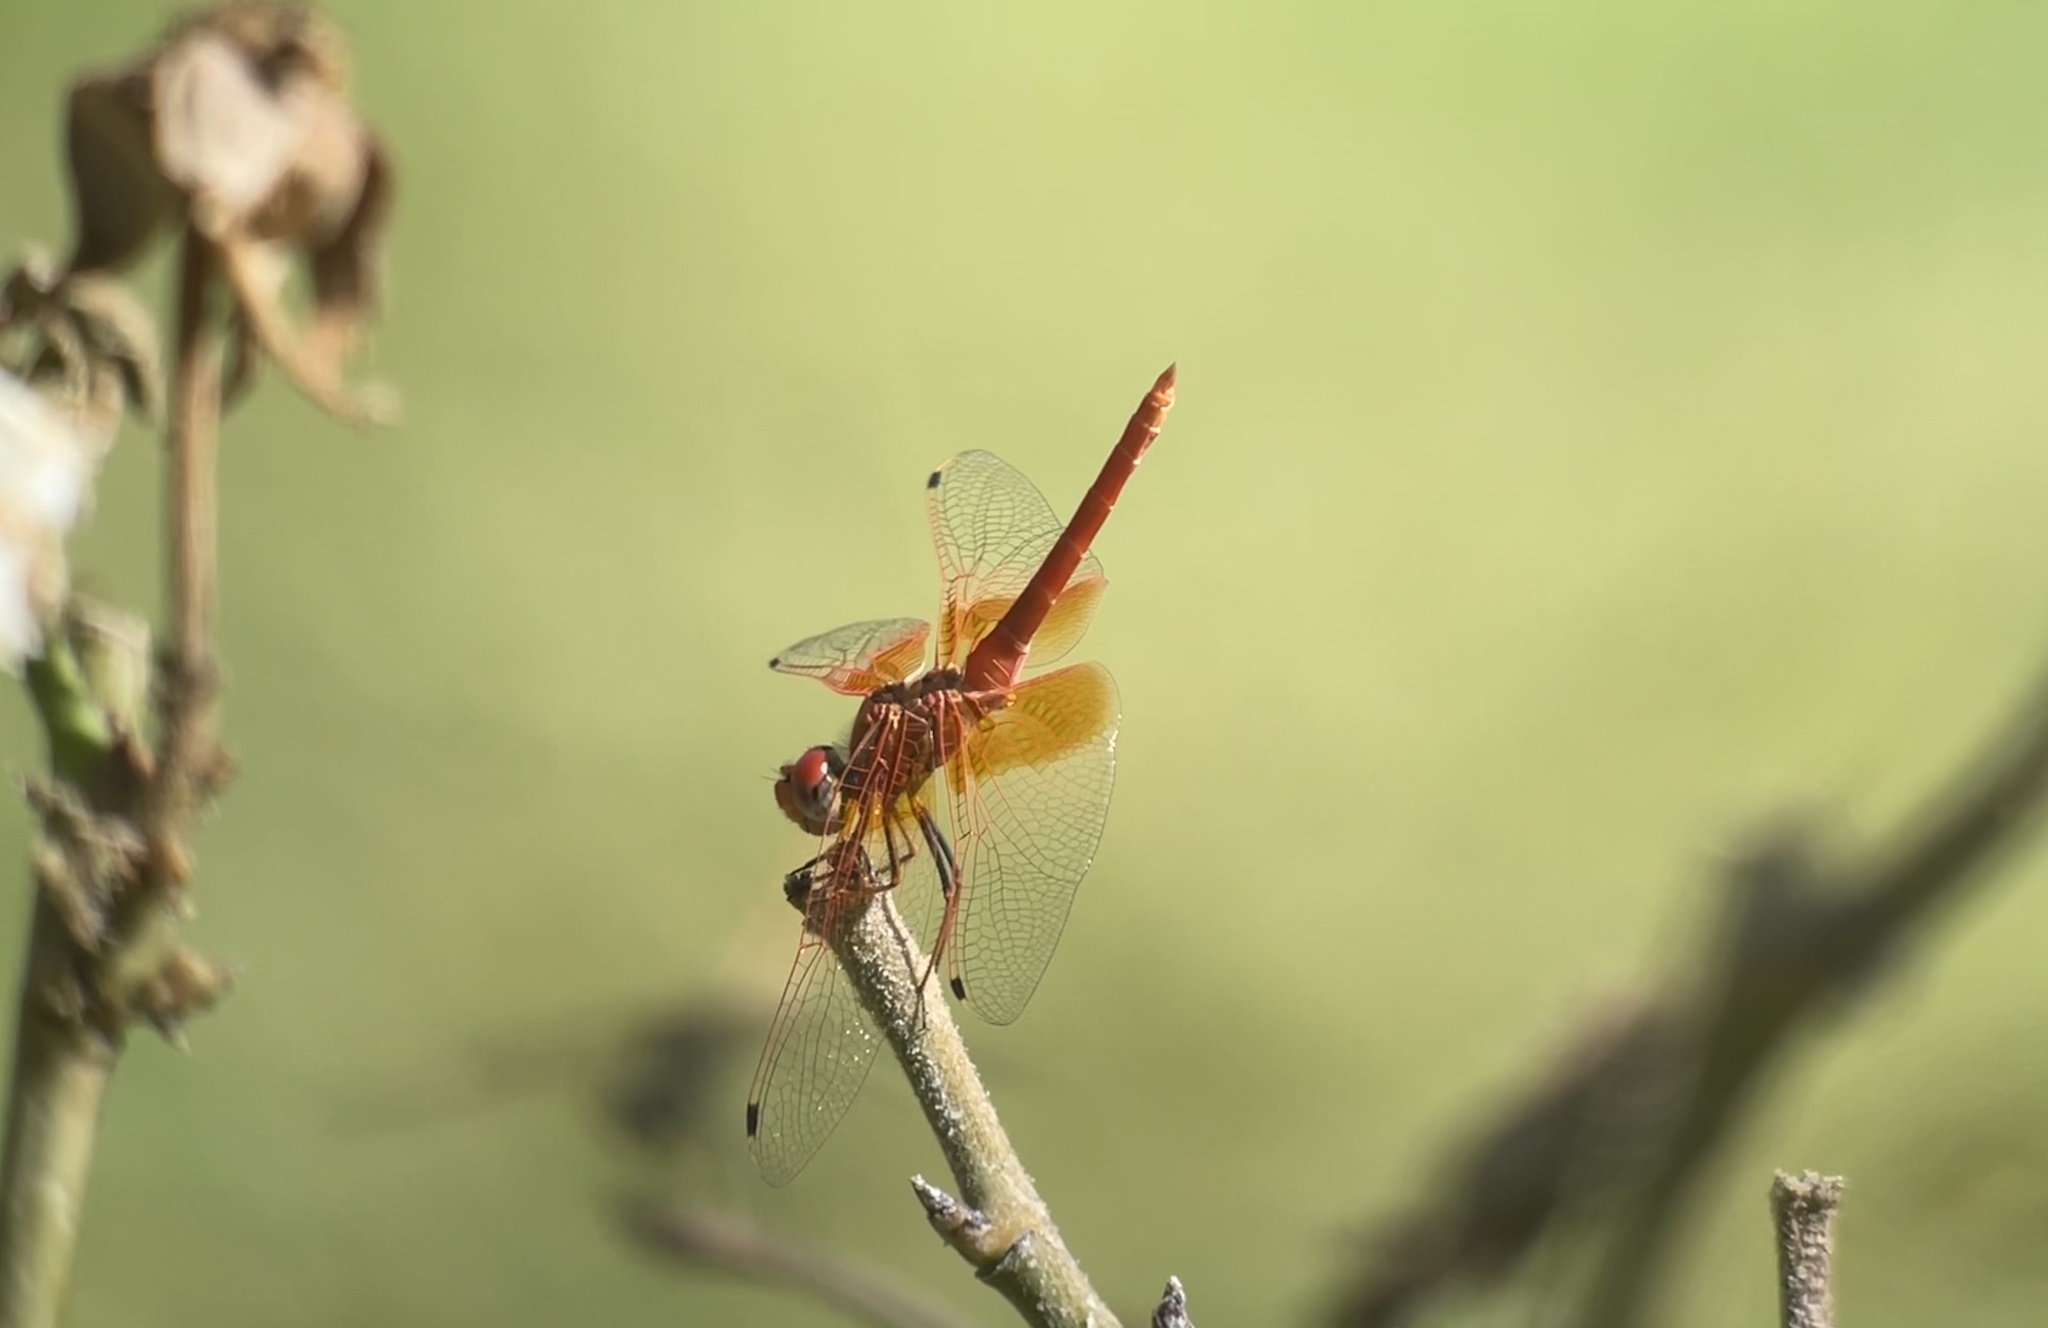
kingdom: Animalia
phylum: Arthropoda
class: Insecta
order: Odonata
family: Libellulidae
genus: Trithemis
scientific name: Trithemis kirbyi
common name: Kirby's dropwing
